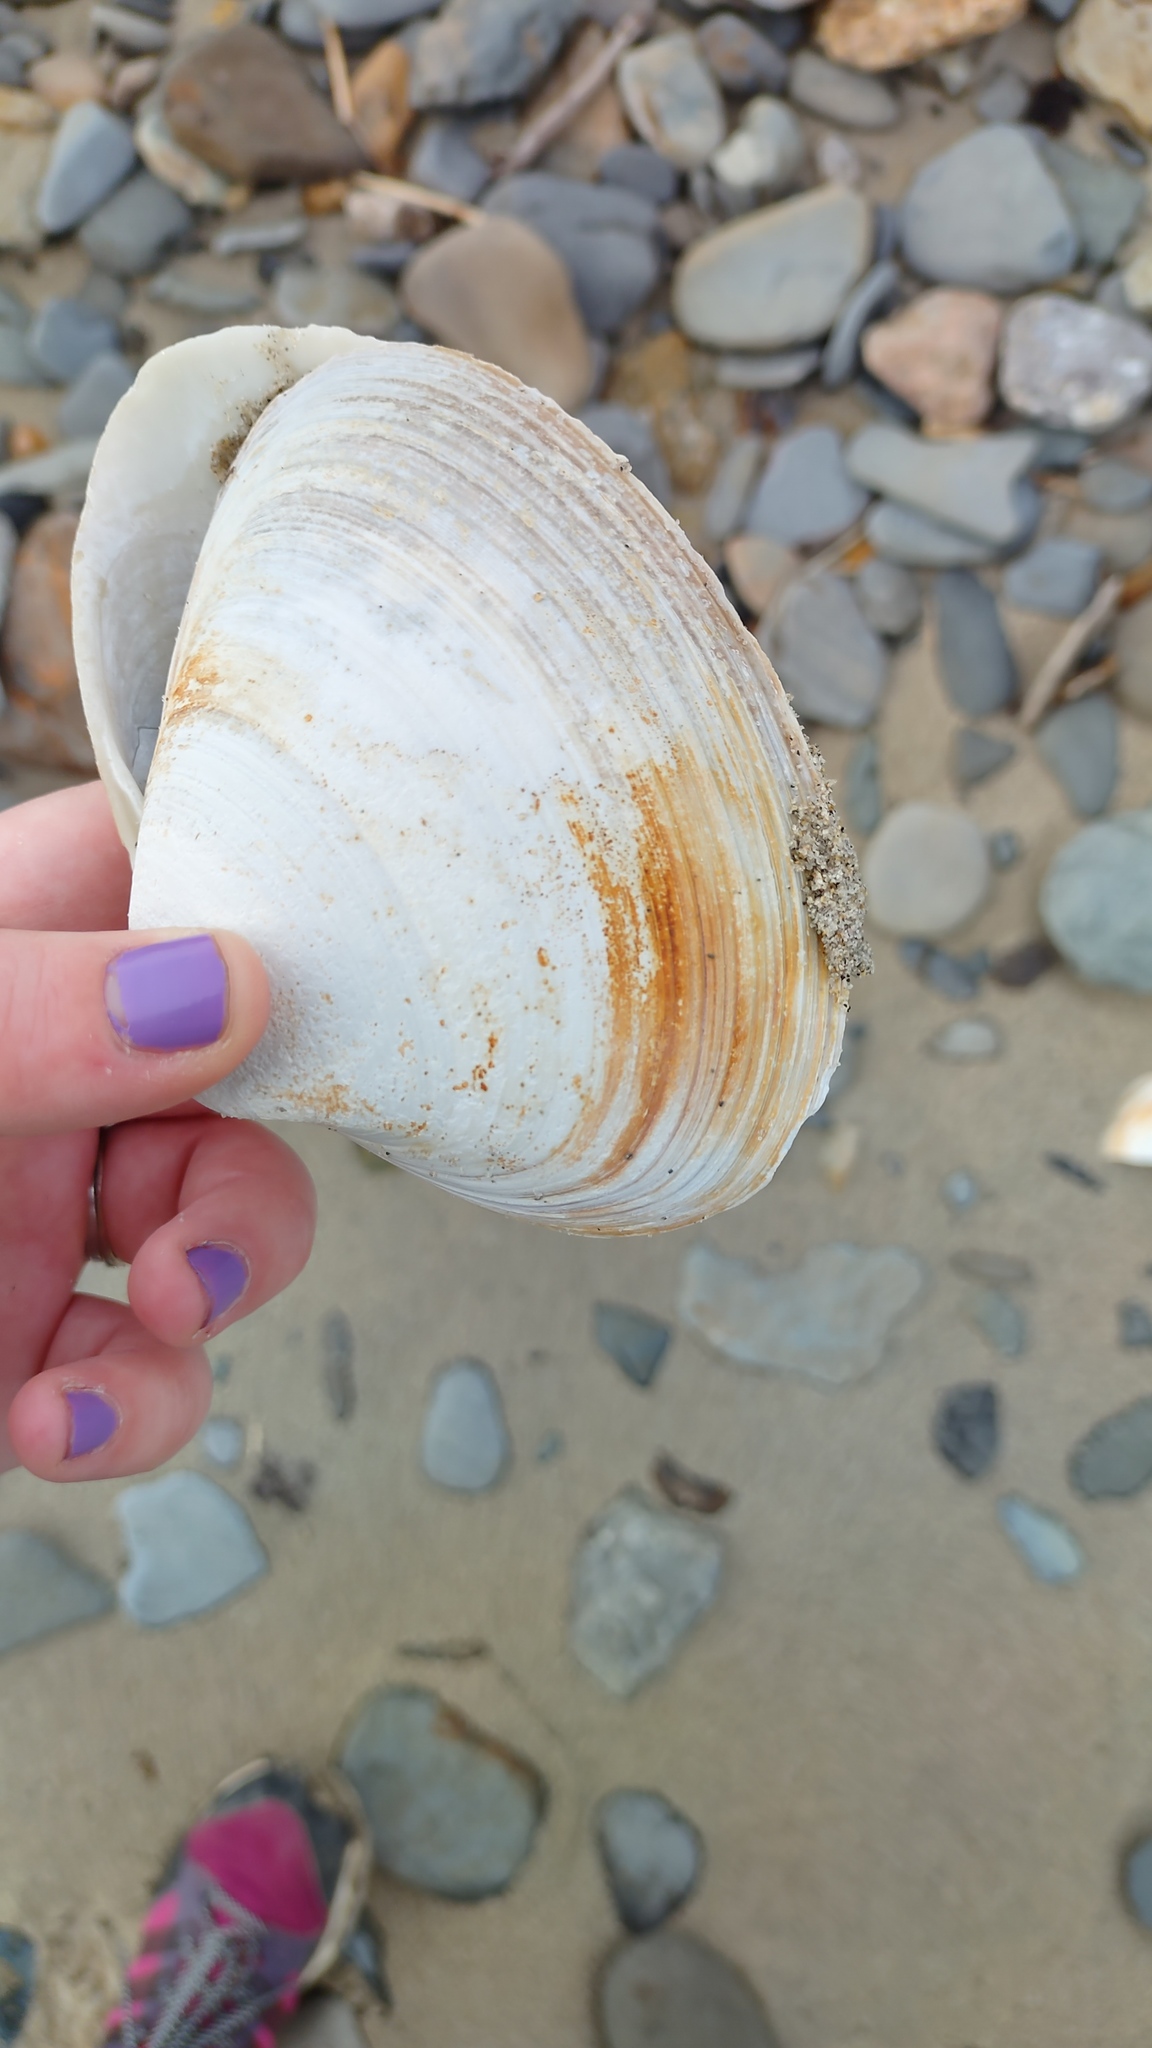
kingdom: Animalia
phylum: Mollusca
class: Bivalvia
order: Venerida
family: Mactridae
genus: Spisula
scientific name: Spisula solidissima
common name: Atlantic surf clam
